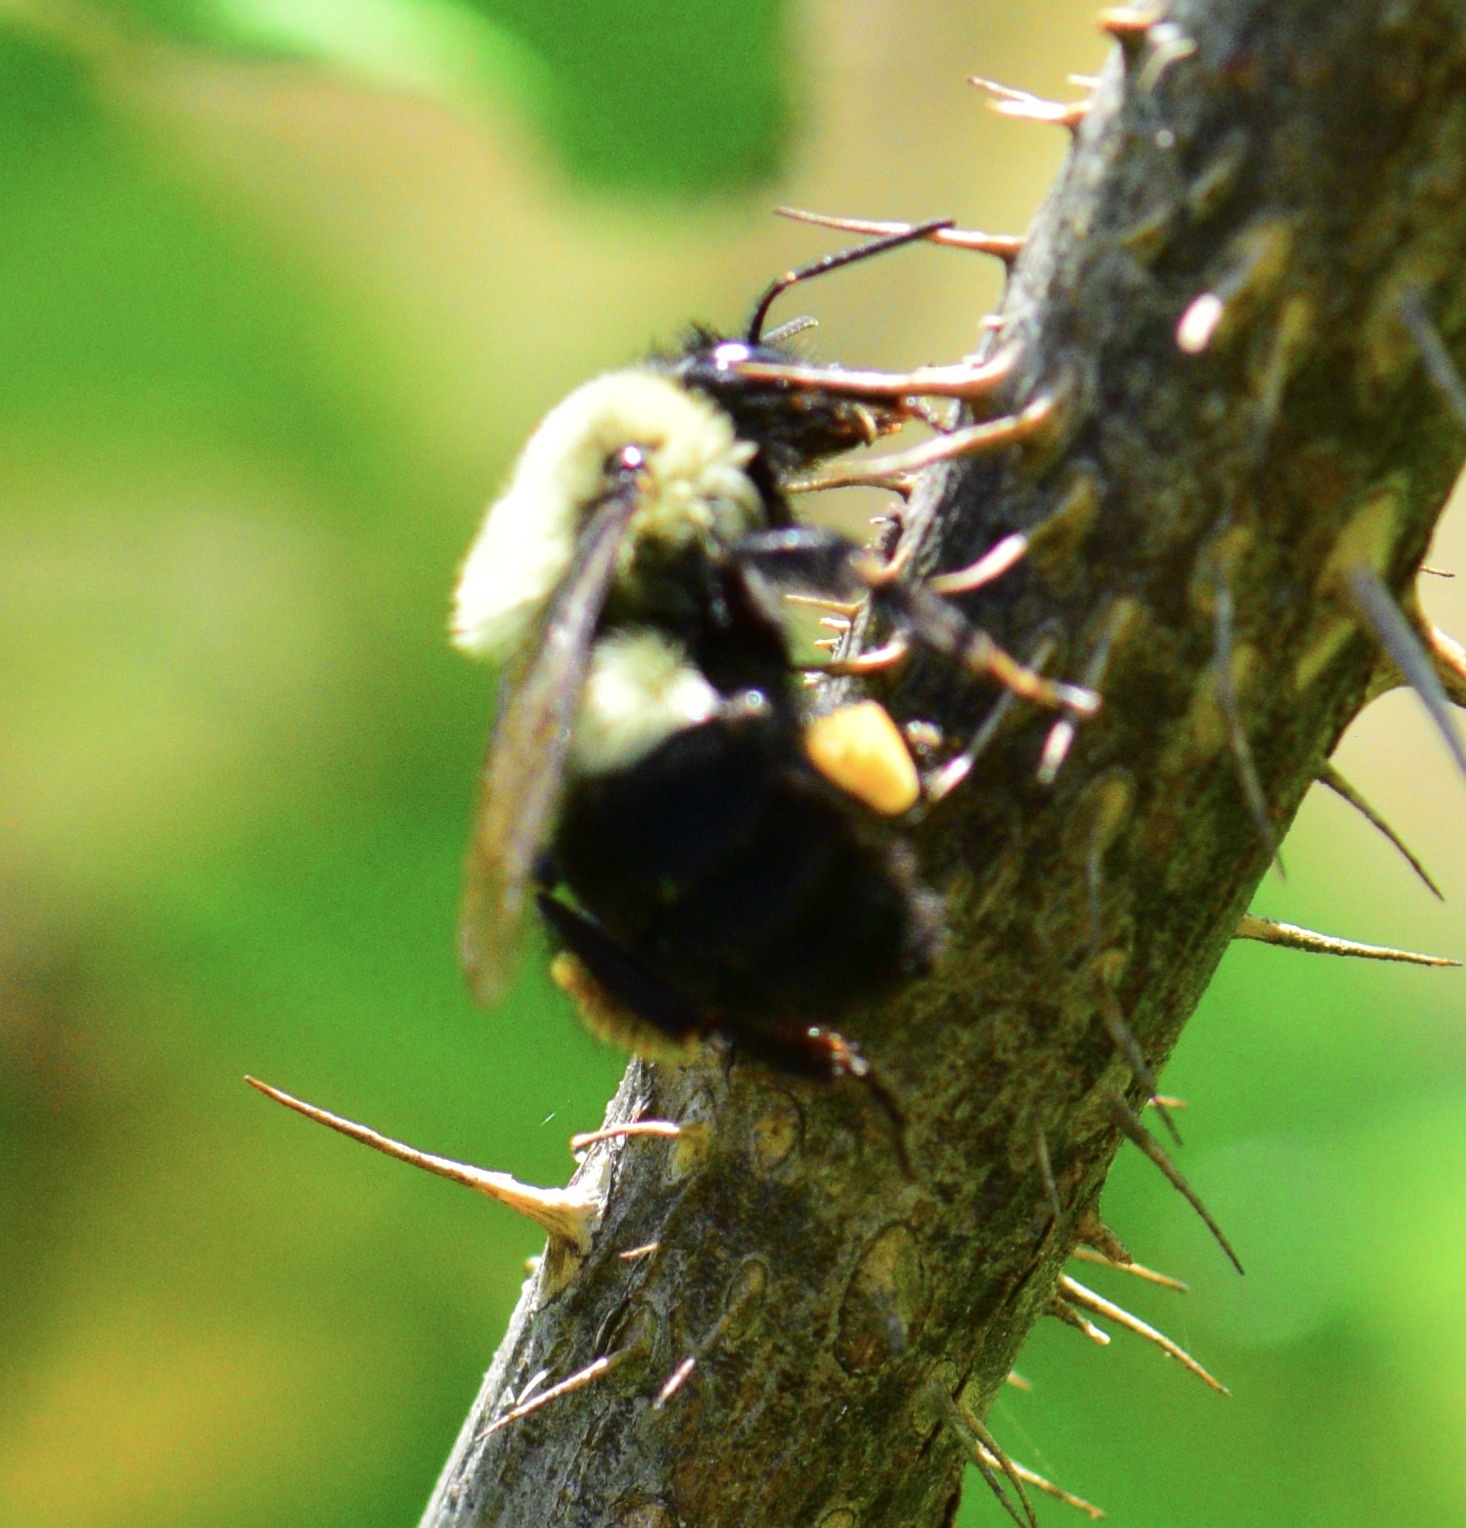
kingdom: Animalia
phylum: Arthropoda
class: Insecta
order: Hymenoptera
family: Apidae
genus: Bombus
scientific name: Bombus impatiens
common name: Common eastern bumble bee
